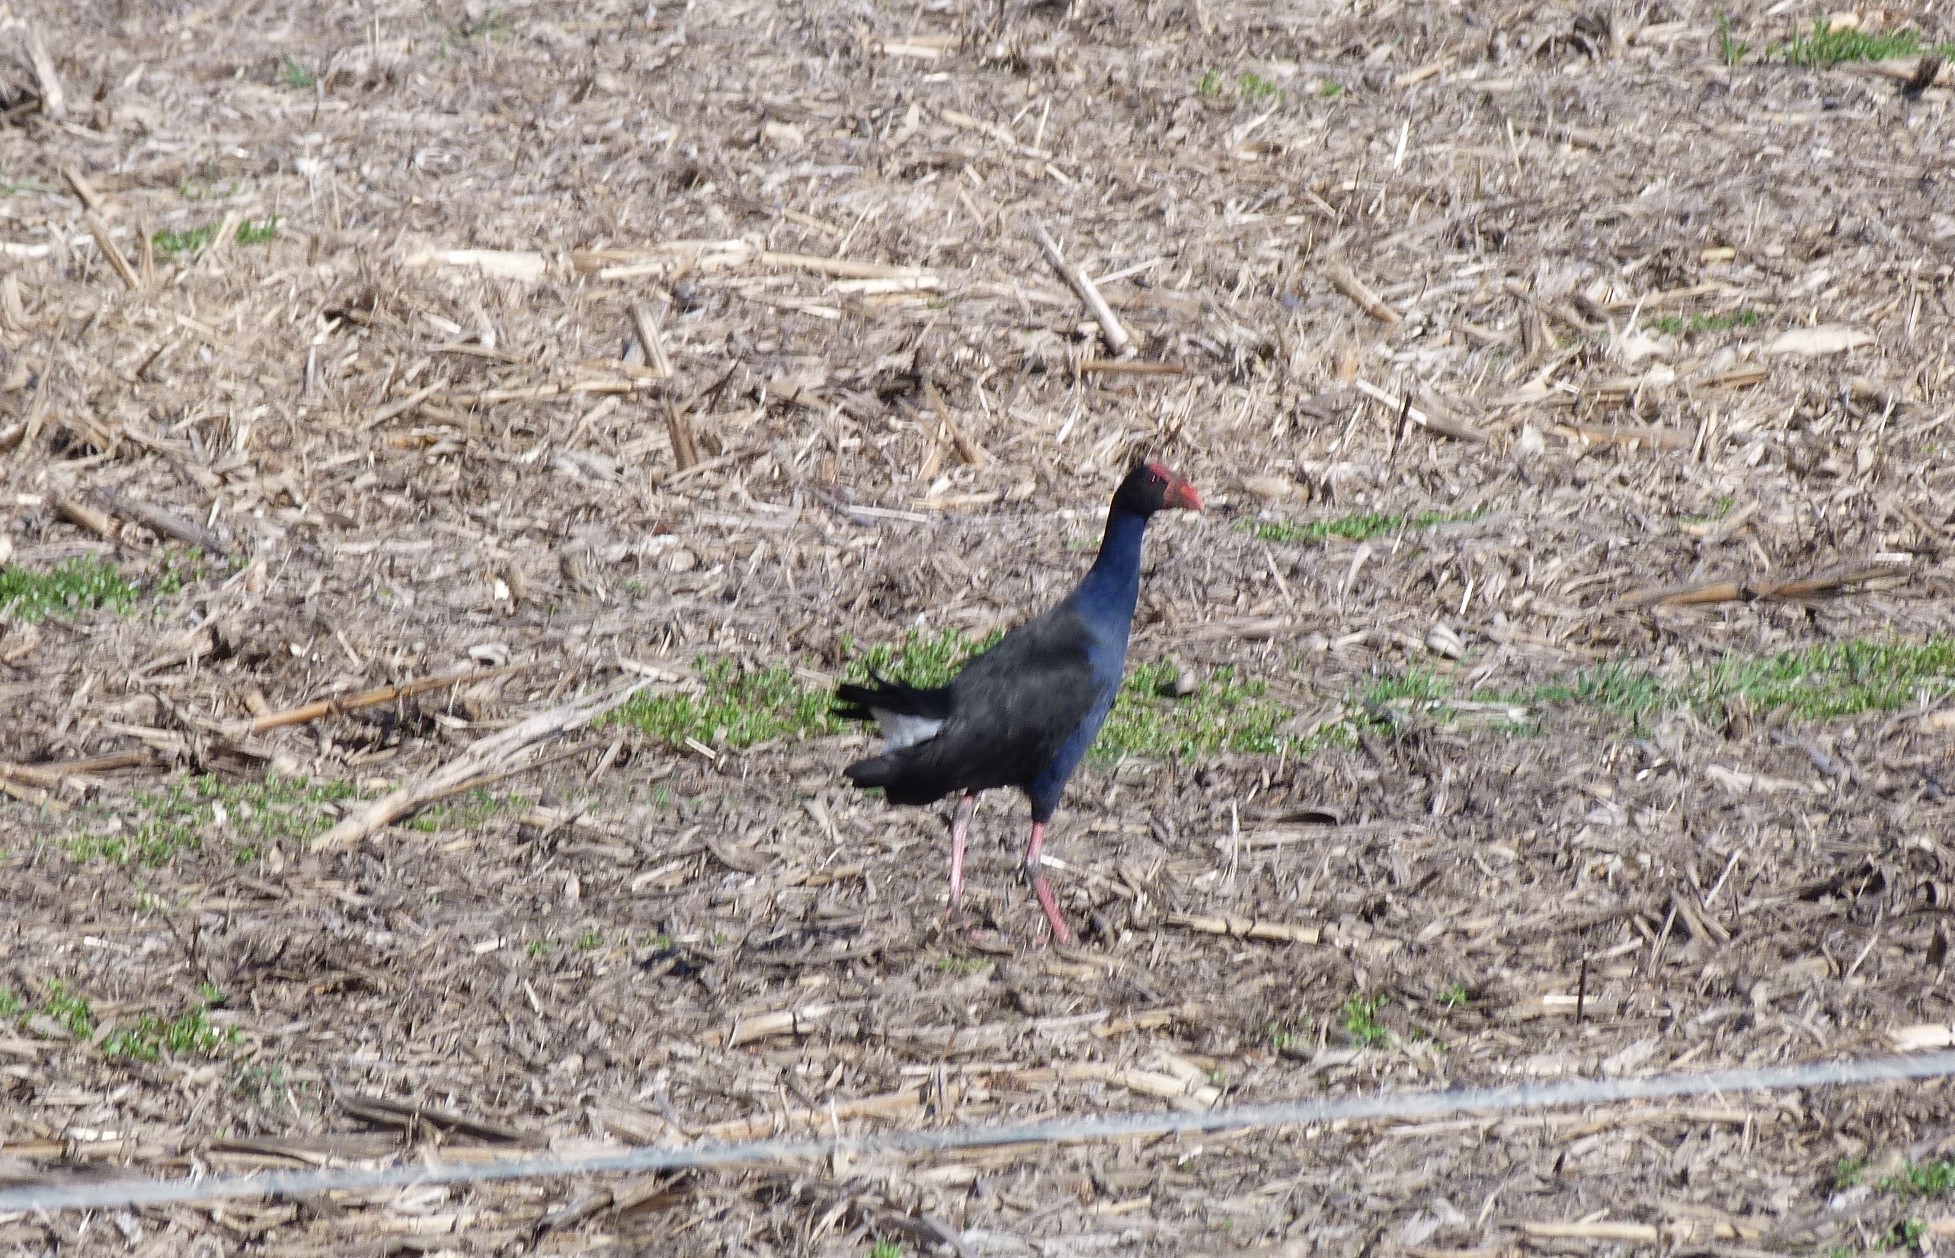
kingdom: Animalia
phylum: Chordata
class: Aves
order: Gruiformes
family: Rallidae
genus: Porphyrio
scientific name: Porphyrio melanotus
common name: Australasian swamphen
